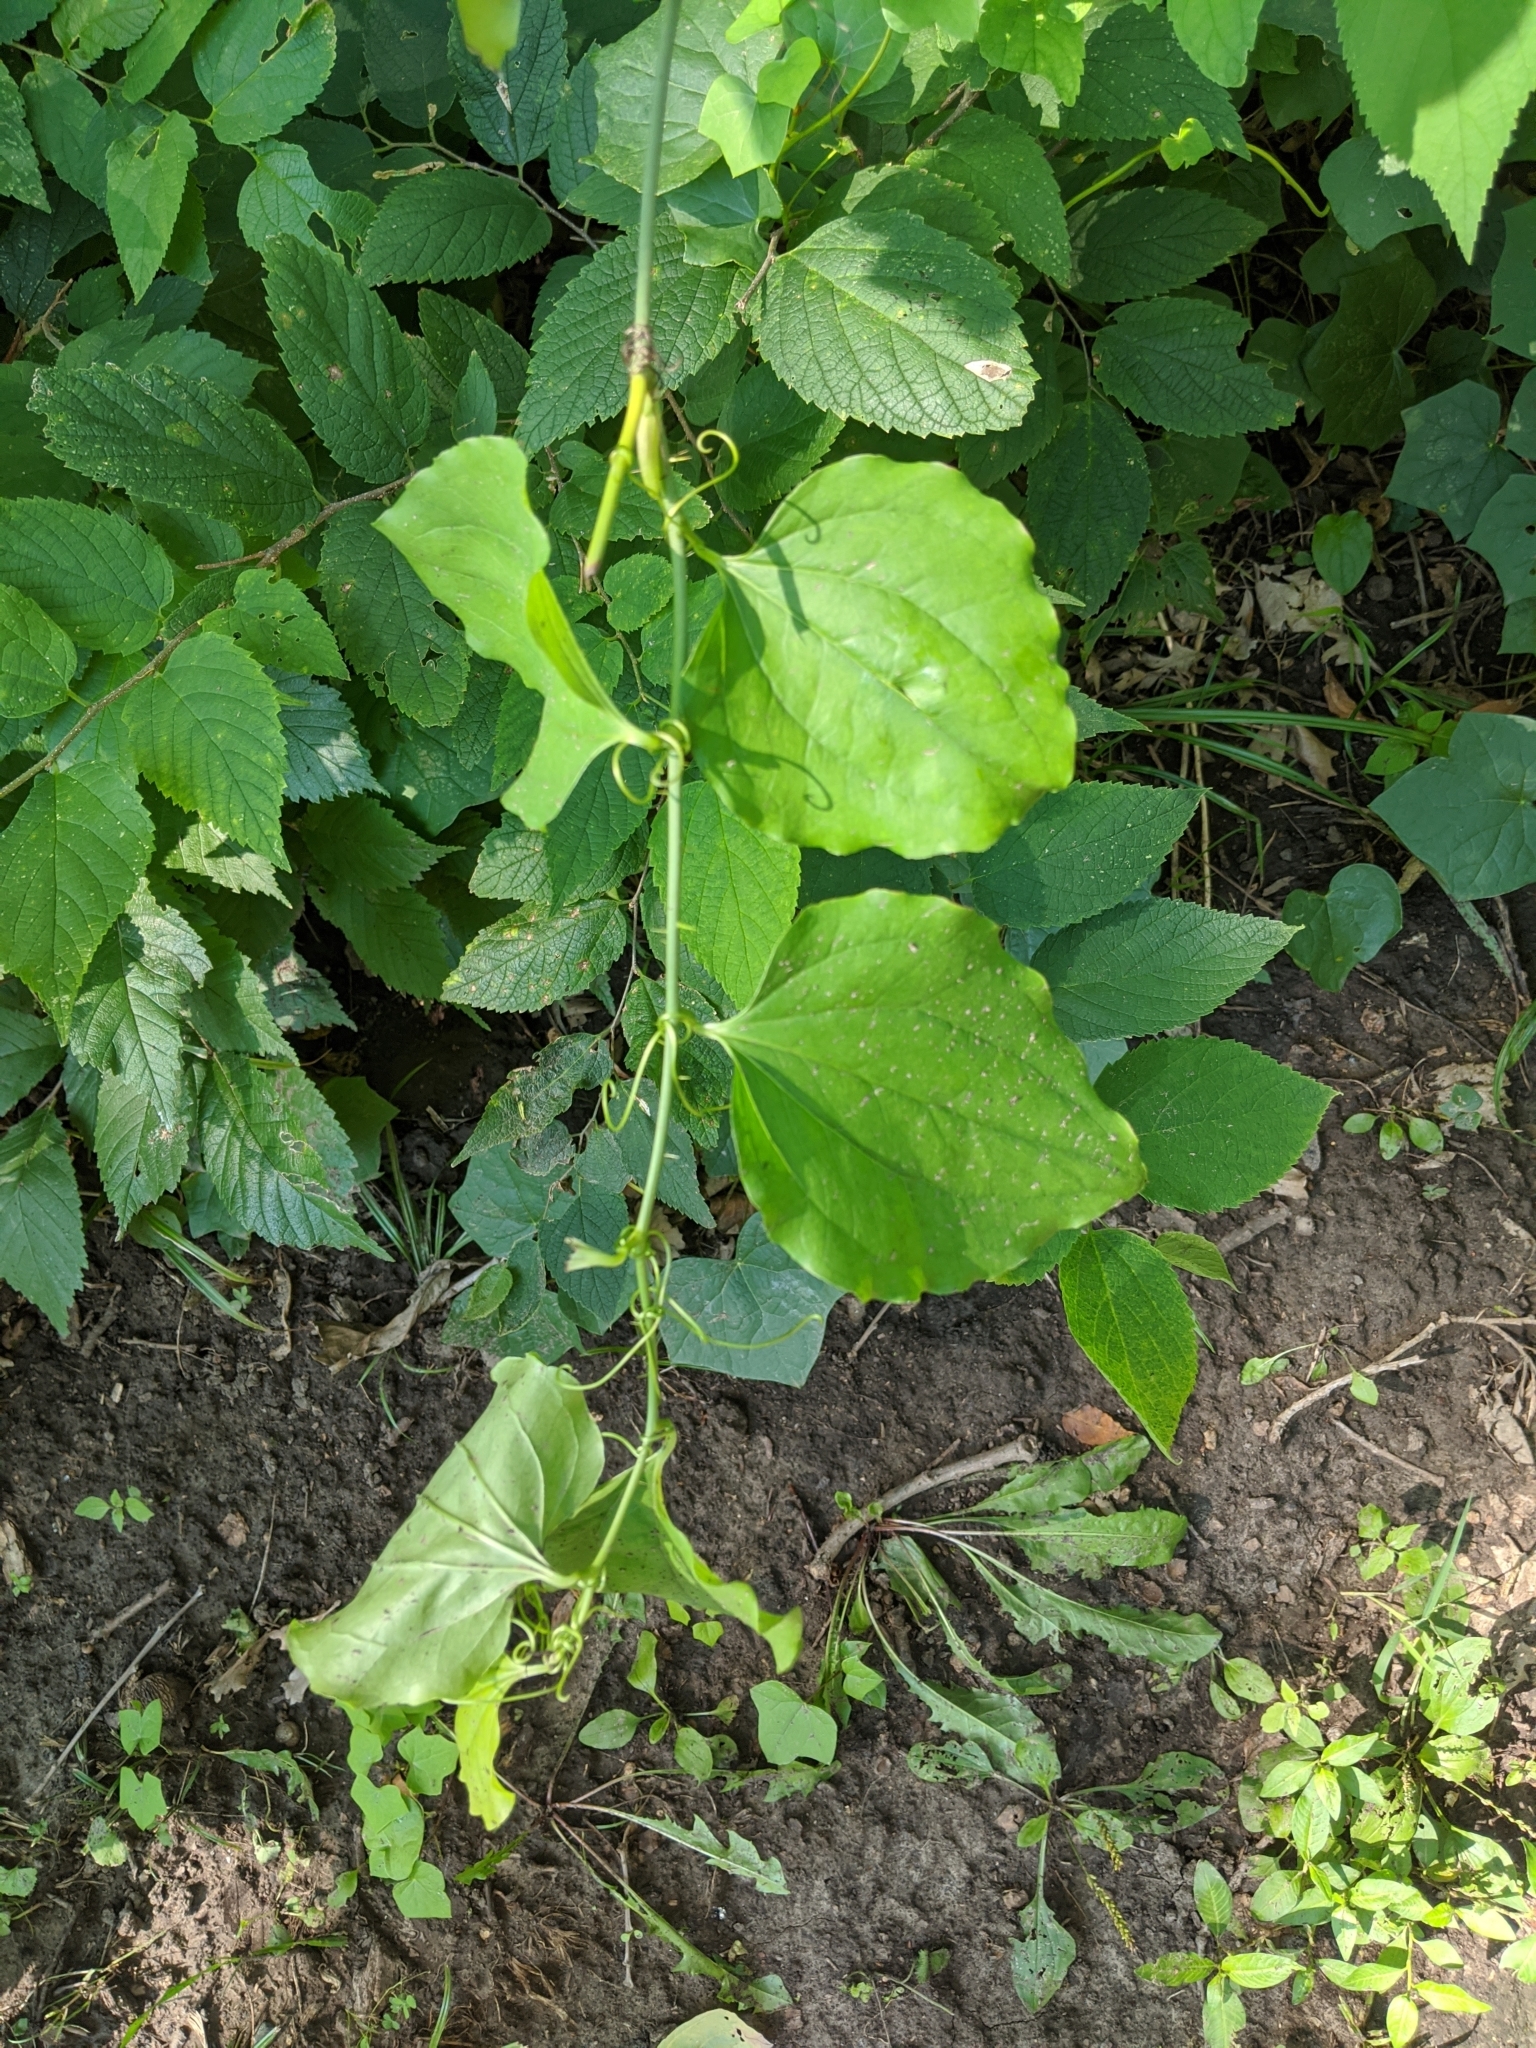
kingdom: Plantae
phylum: Tracheophyta
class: Liliopsida
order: Liliales
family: Smilacaceae
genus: Smilax
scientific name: Smilax tamnoides
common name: Hellfetter
